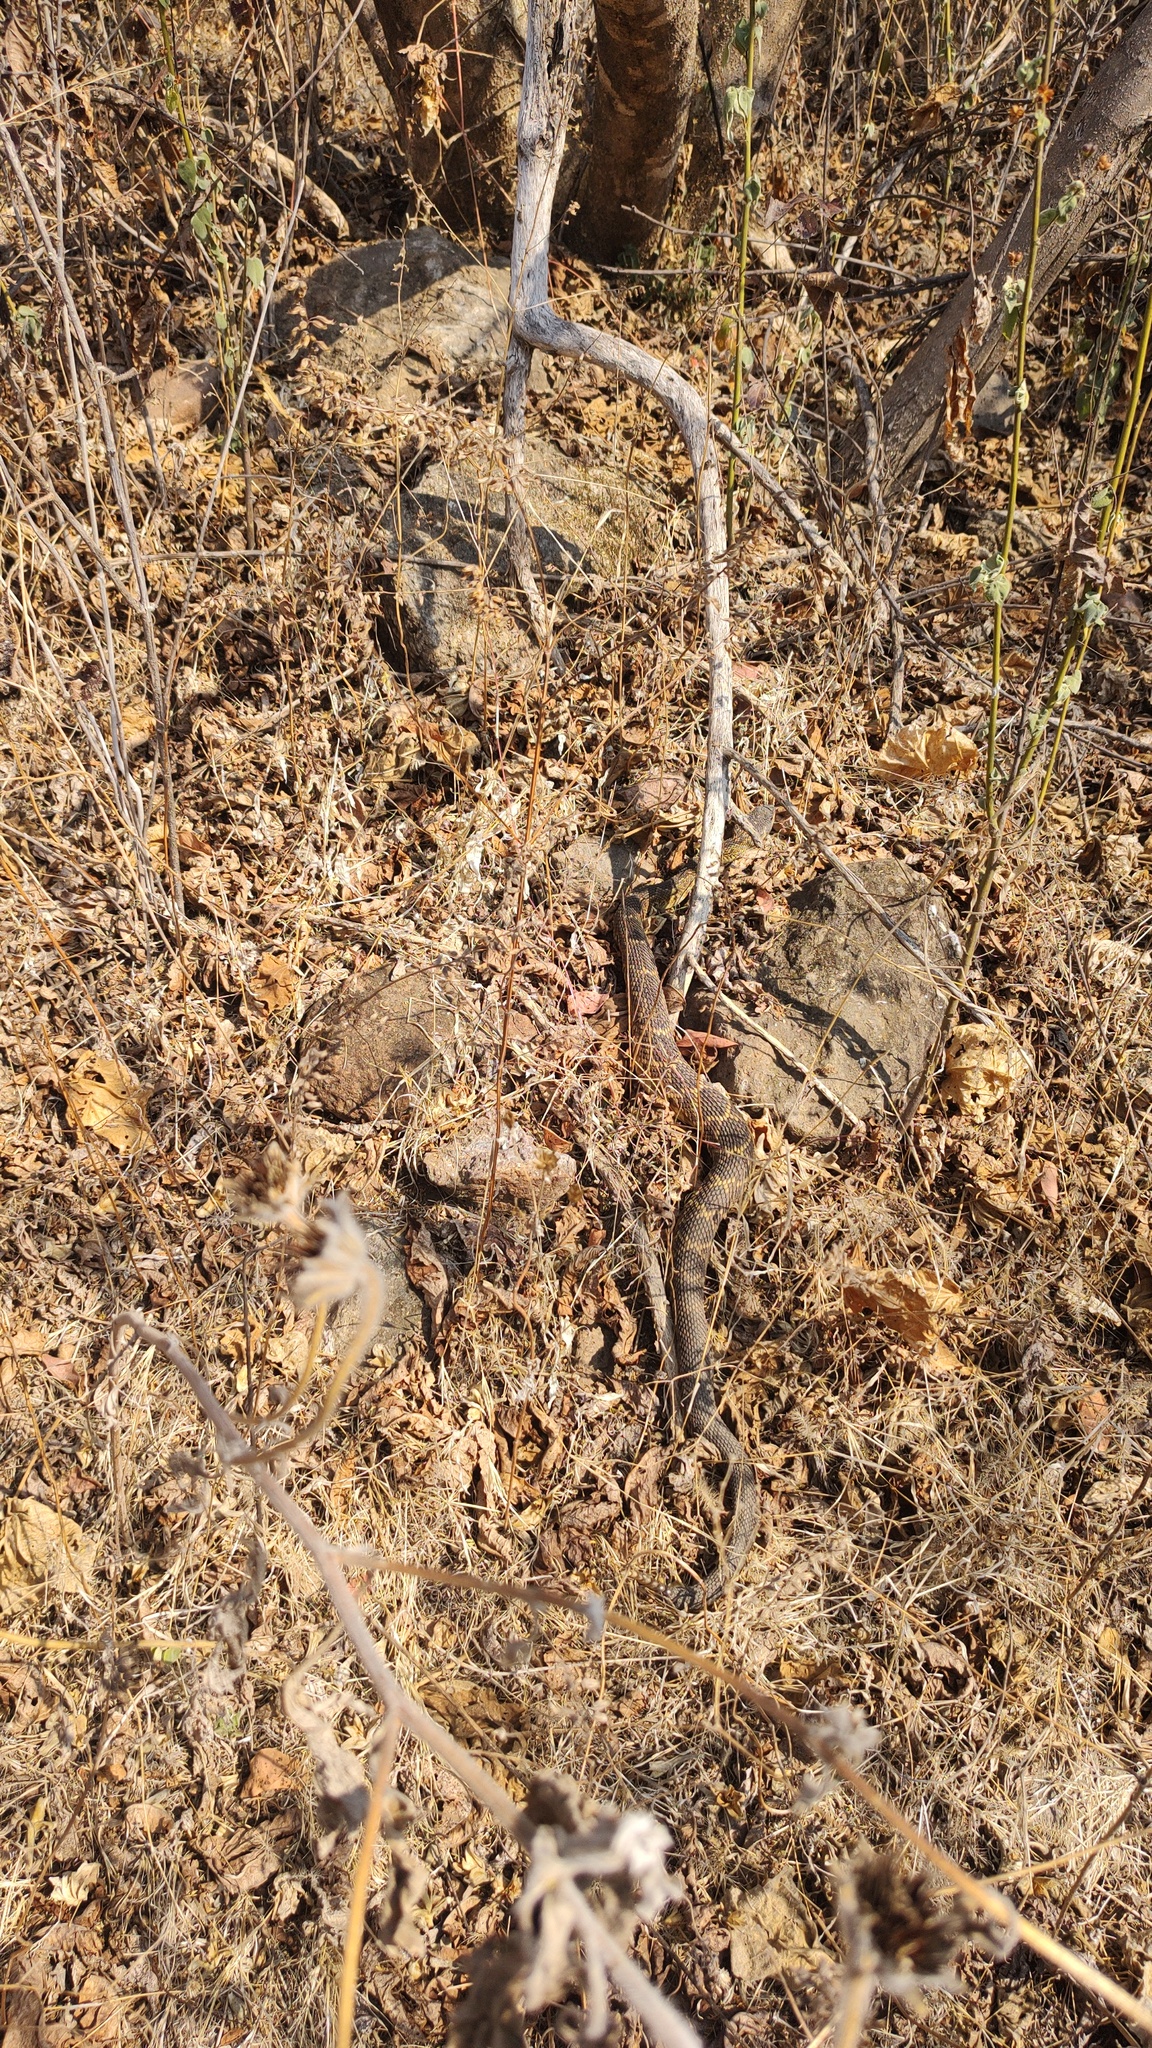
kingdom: Animalia
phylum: Chordata
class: Squamata
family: Viperidae
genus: Crotalus
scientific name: Crotalus molossus
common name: Black tailed rattlesnake
